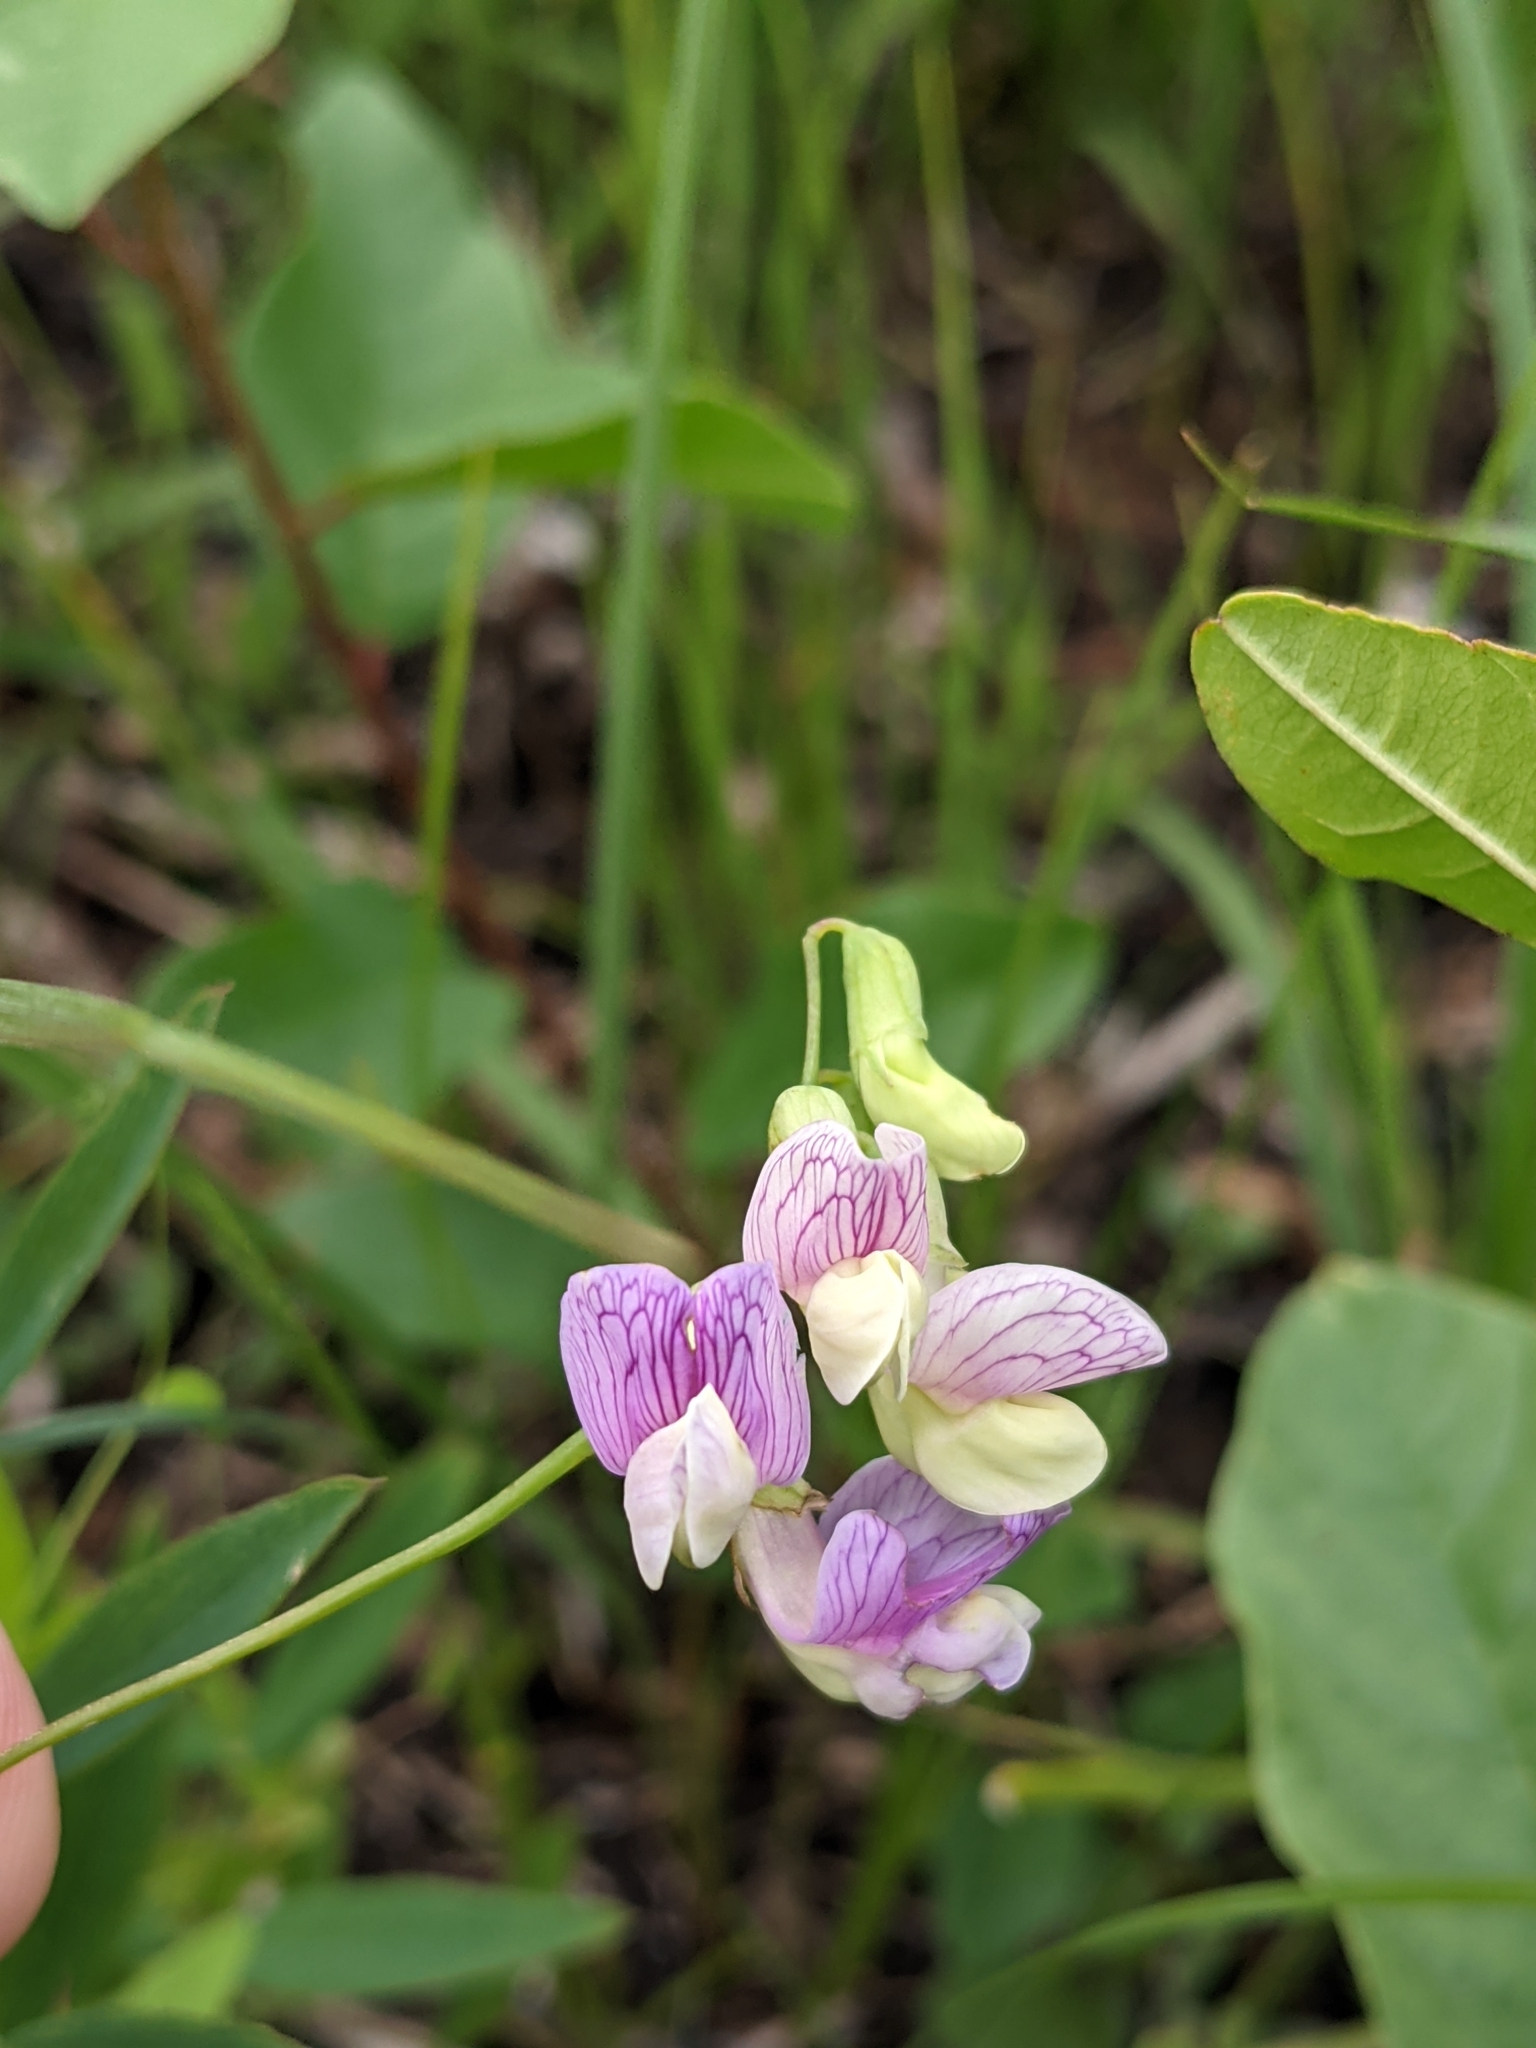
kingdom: Plantae
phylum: Tracheophyta
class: Magnoliopsida
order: Fabales
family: Fabaceae
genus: Lathyrus
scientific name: Lathyrus palustris
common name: Marsh pea
